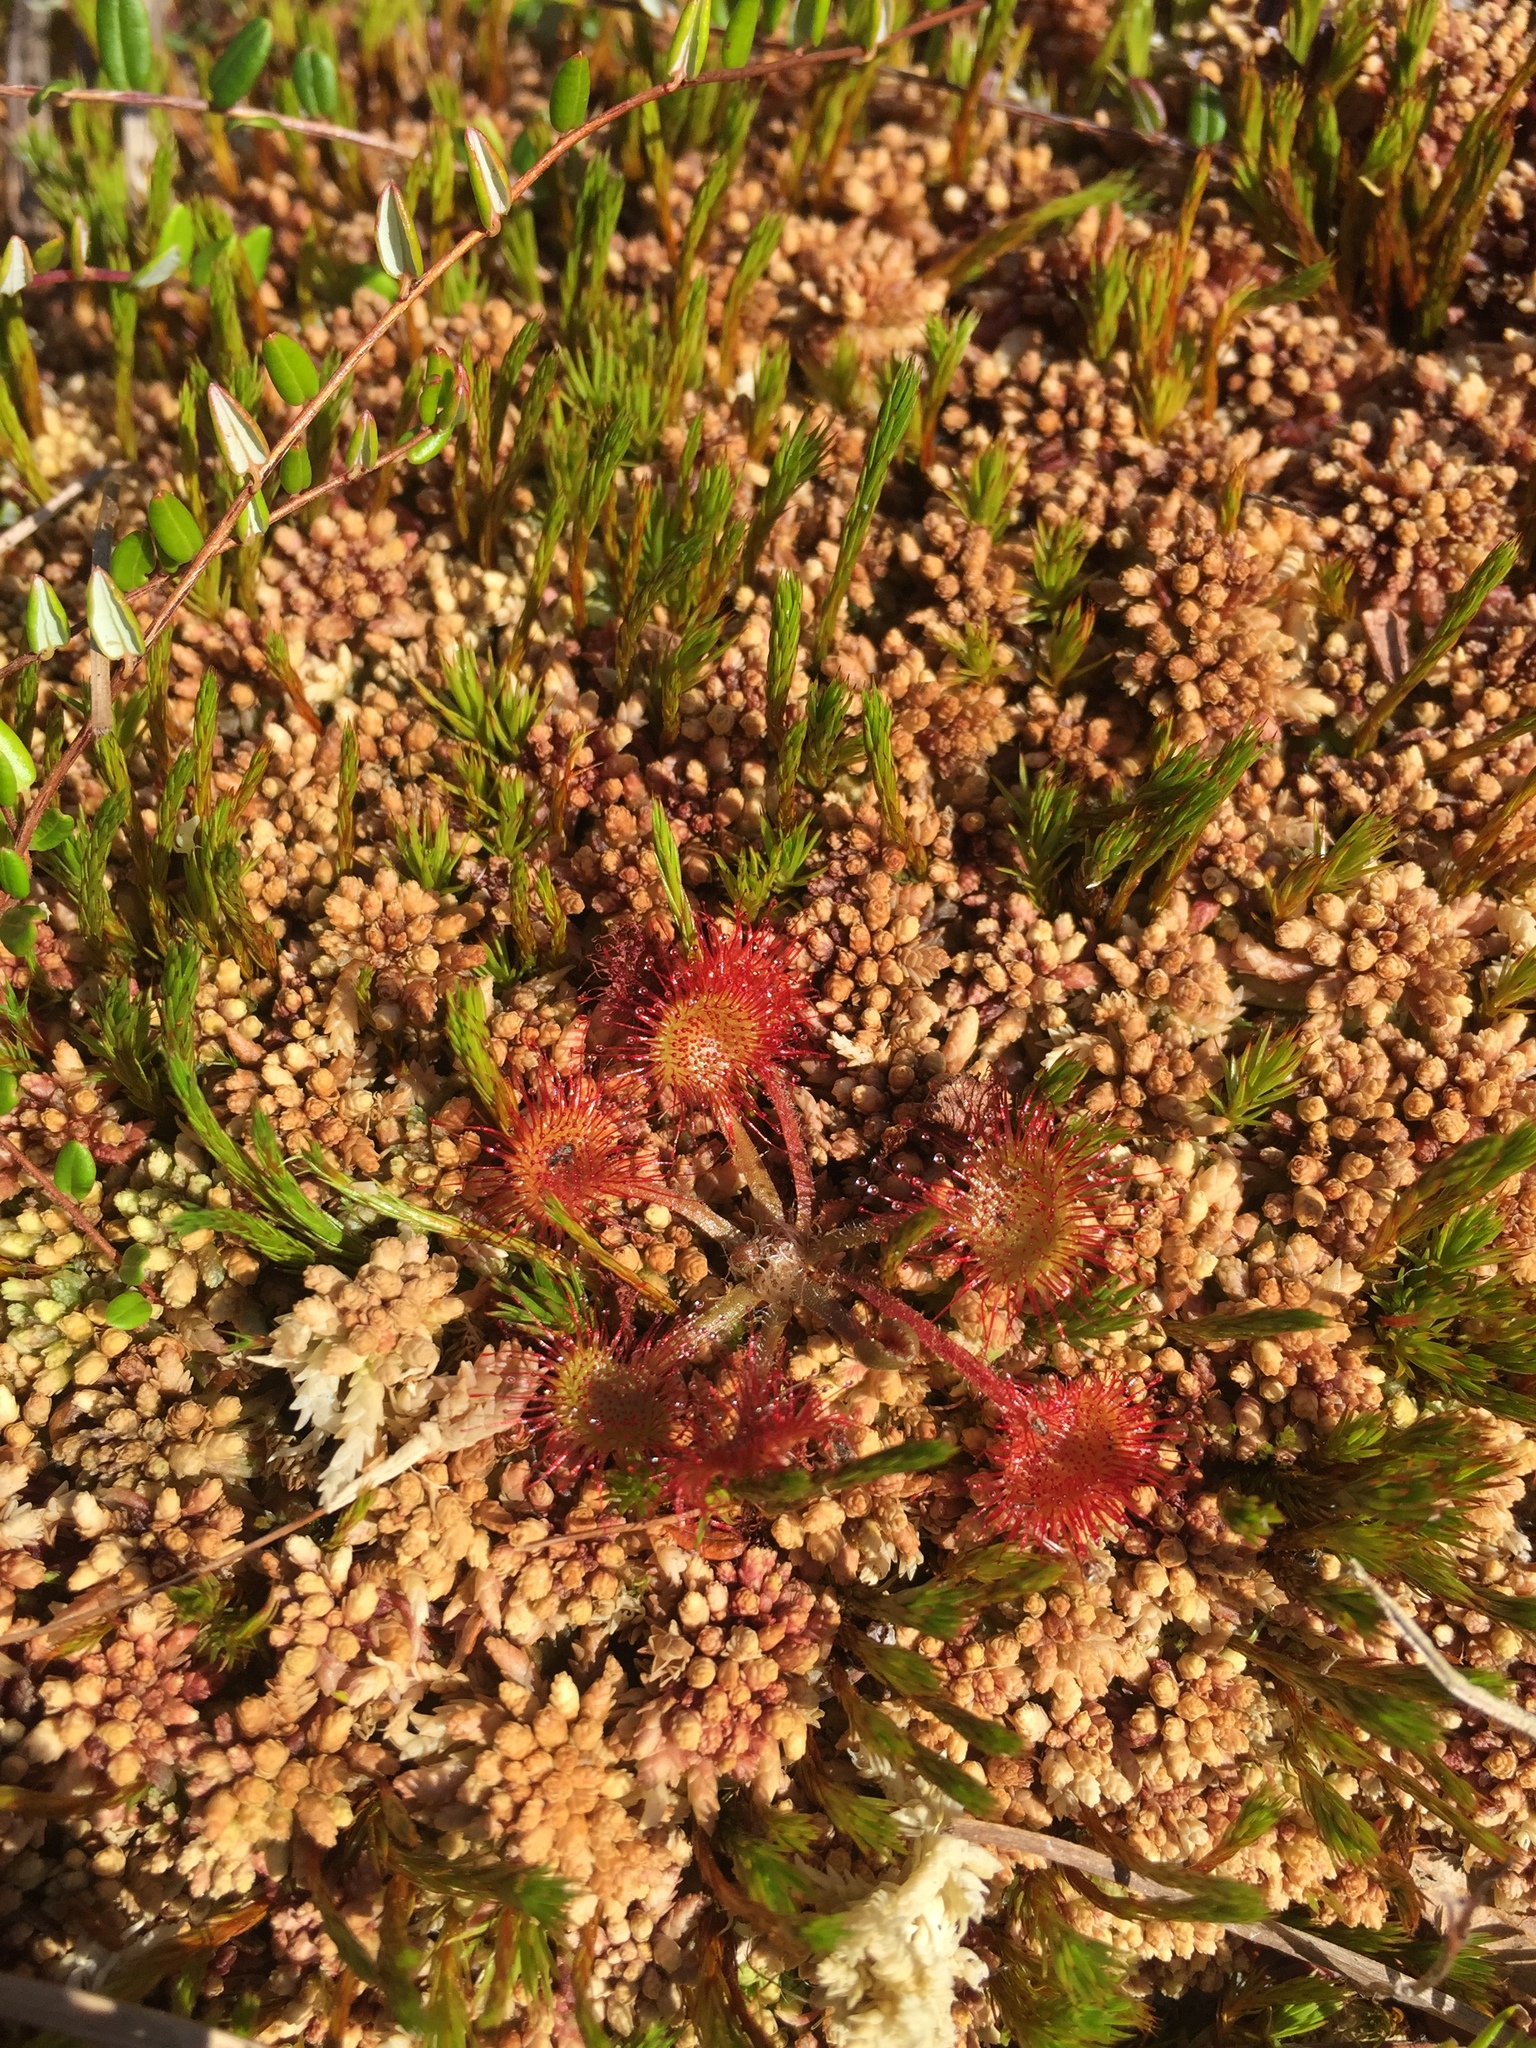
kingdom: Plantae
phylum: Tracheophyta
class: Magnoliopsida
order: Caryophyllales
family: Droseraceae
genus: Drosera
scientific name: Drosera rotundifolia
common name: Round-leaved sundew
